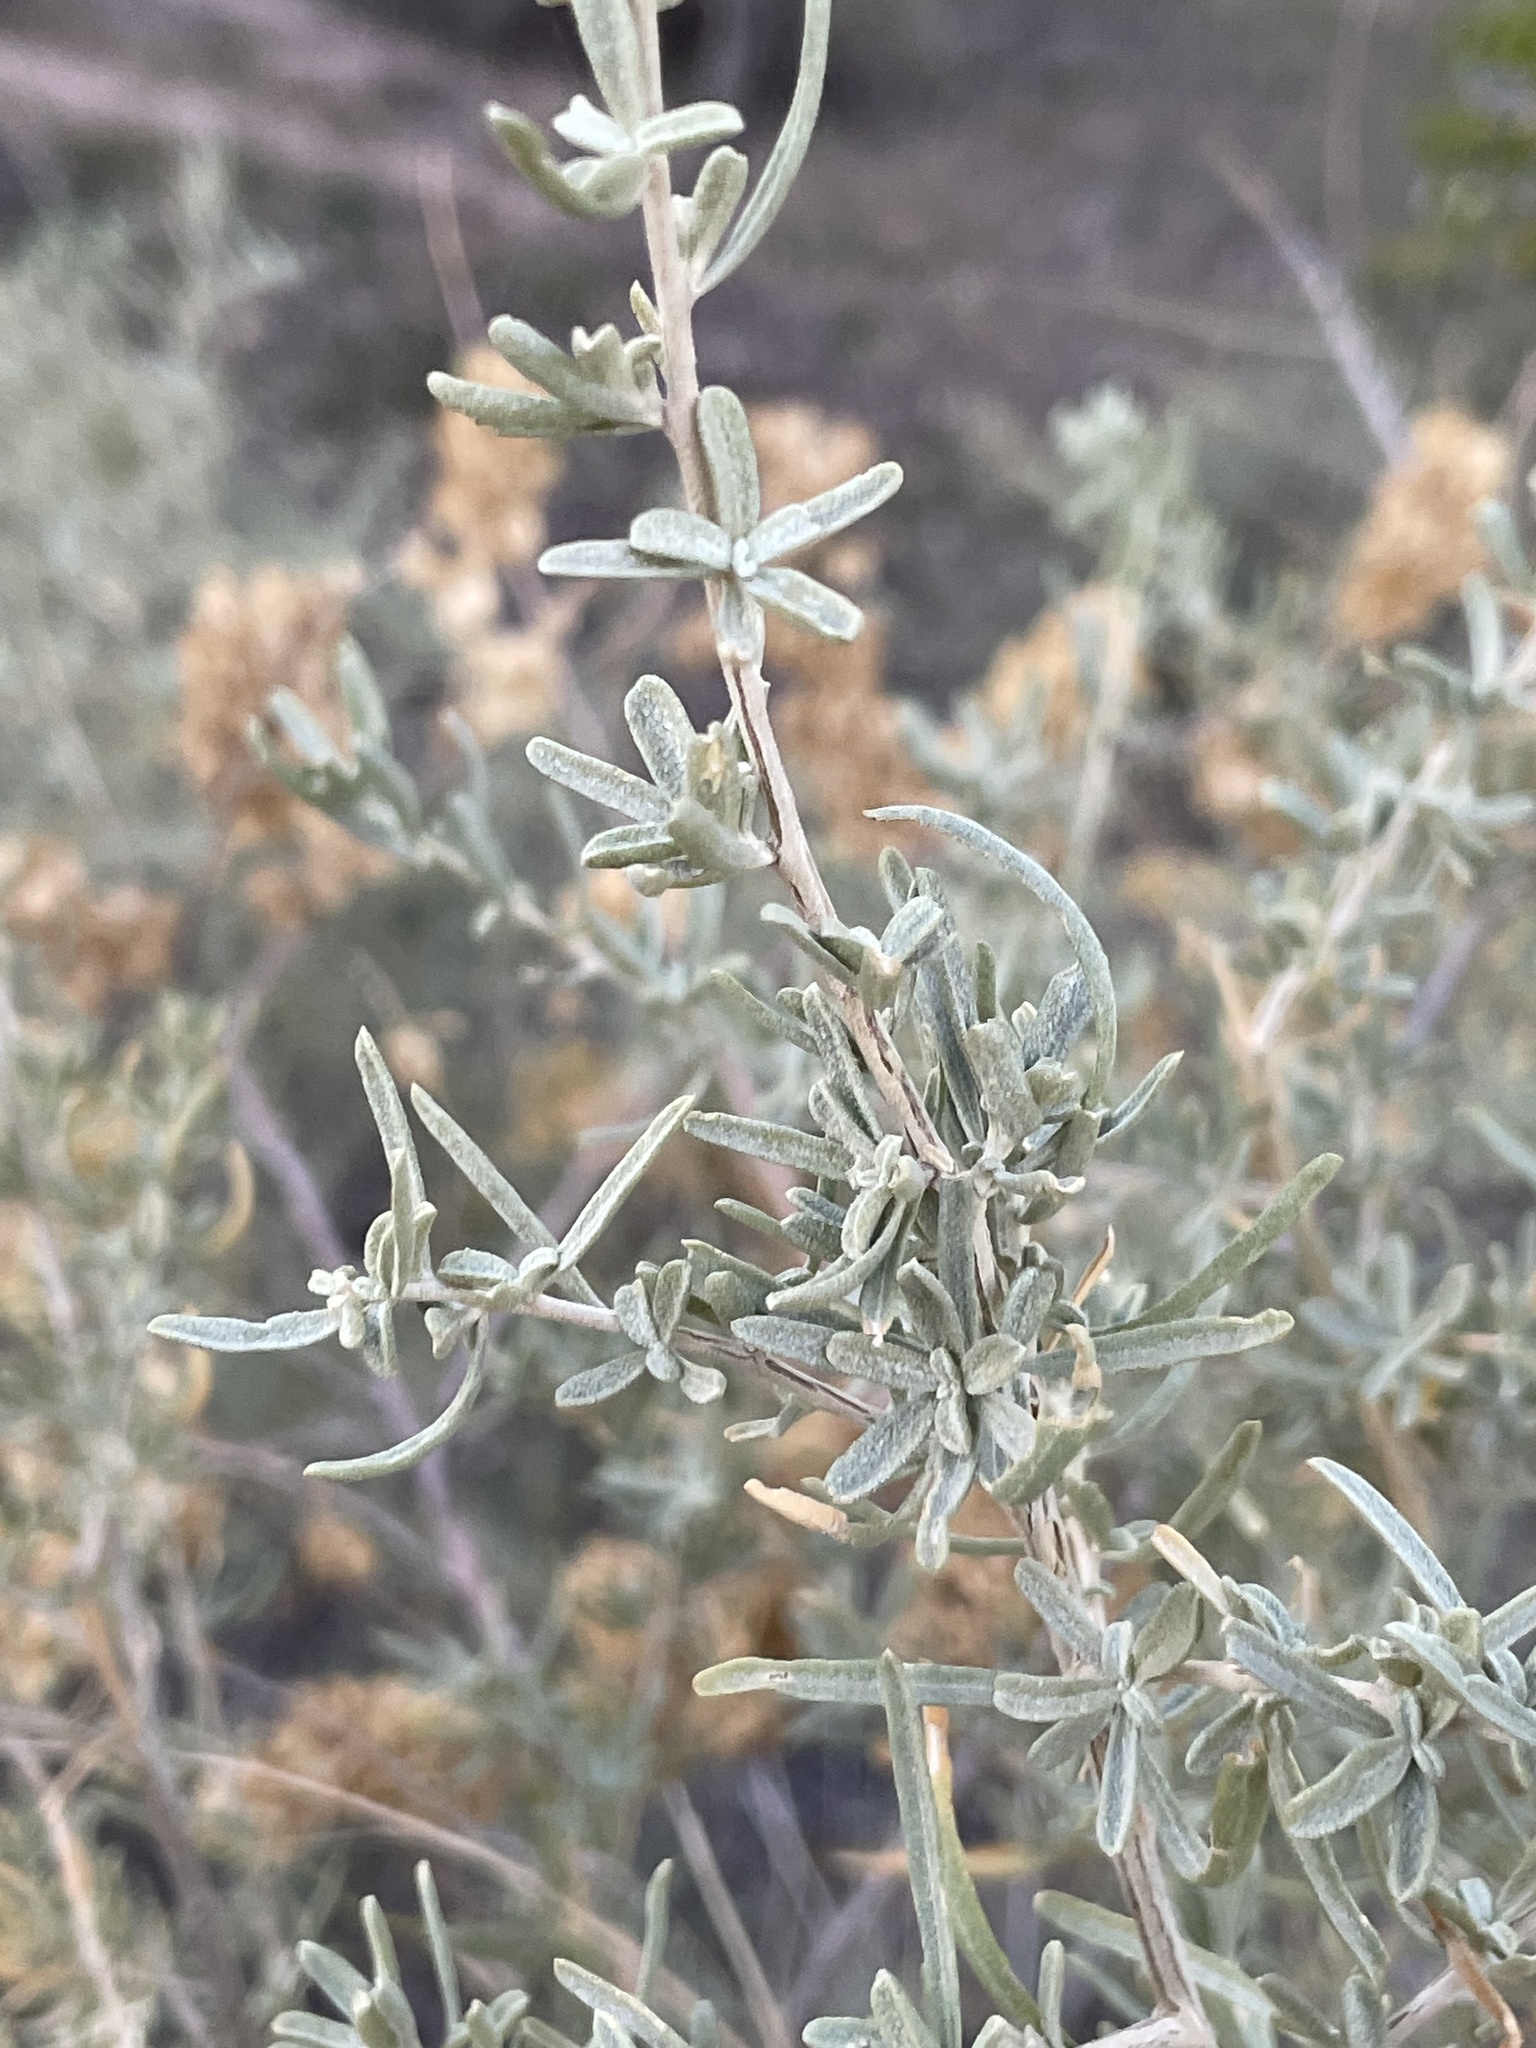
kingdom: Plantae
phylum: Tracheophyta
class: Magnoliopsida
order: Caryophyllales
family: Amaranthaceae
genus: Atriplex
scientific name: Atriplex canescens
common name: Four-wing saltbush
